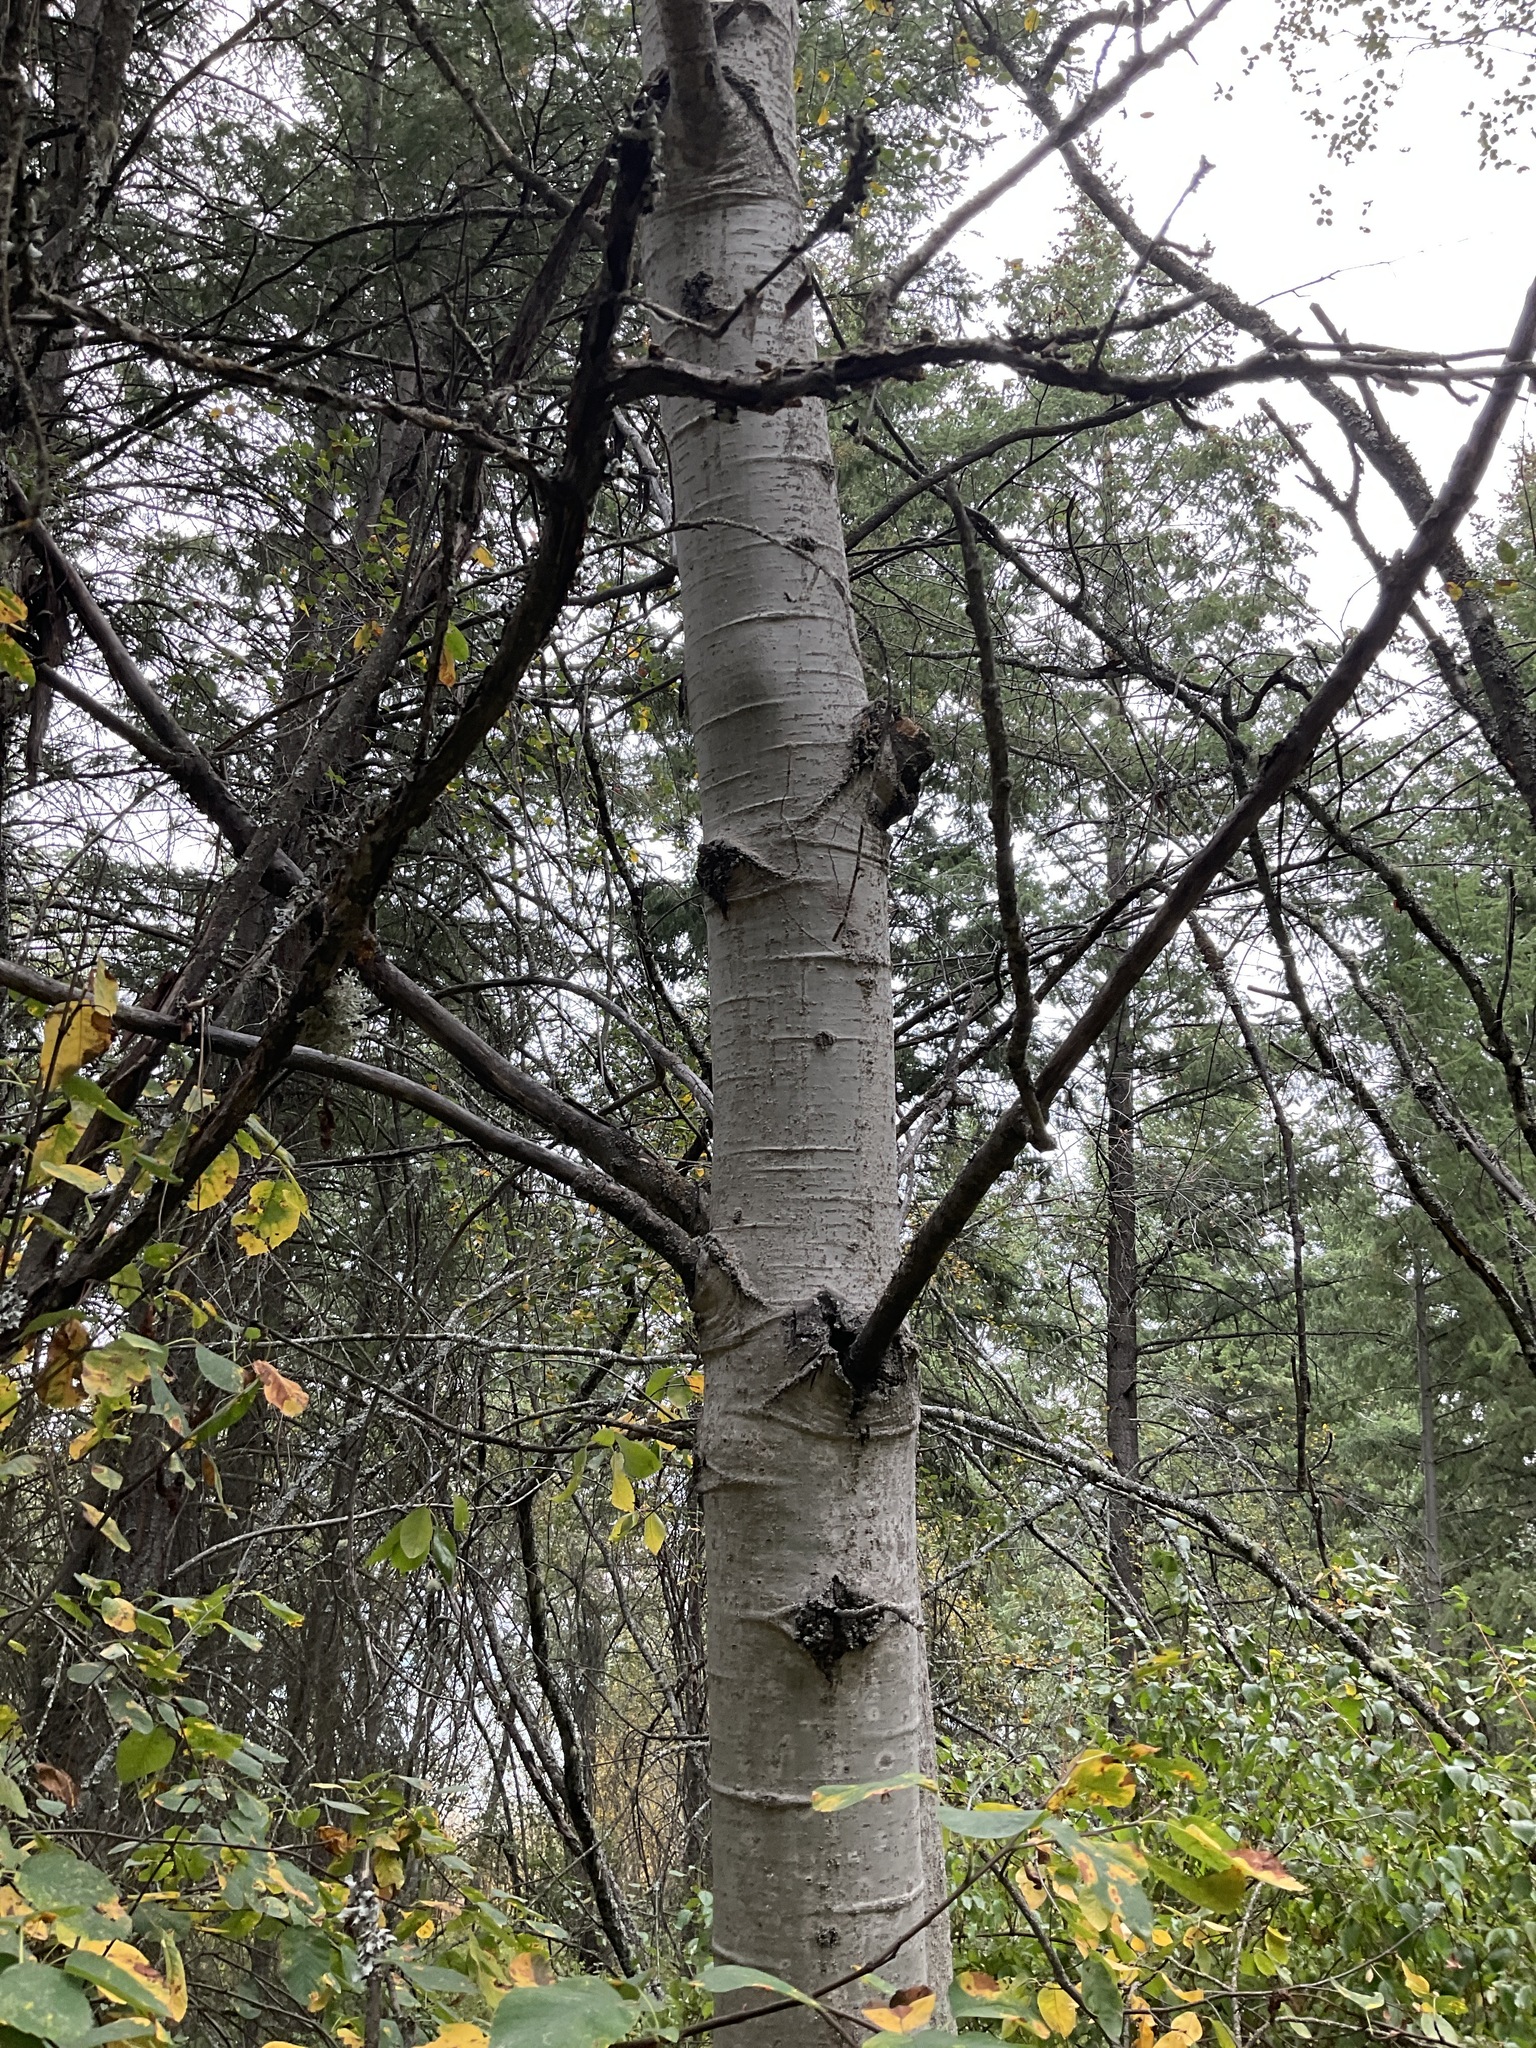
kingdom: Plantae
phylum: Tracheophyta
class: Magnoliopsida
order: Malpighiales
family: Salicaceae
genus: Populus
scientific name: Populus tremuloides
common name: Quaking aspen
